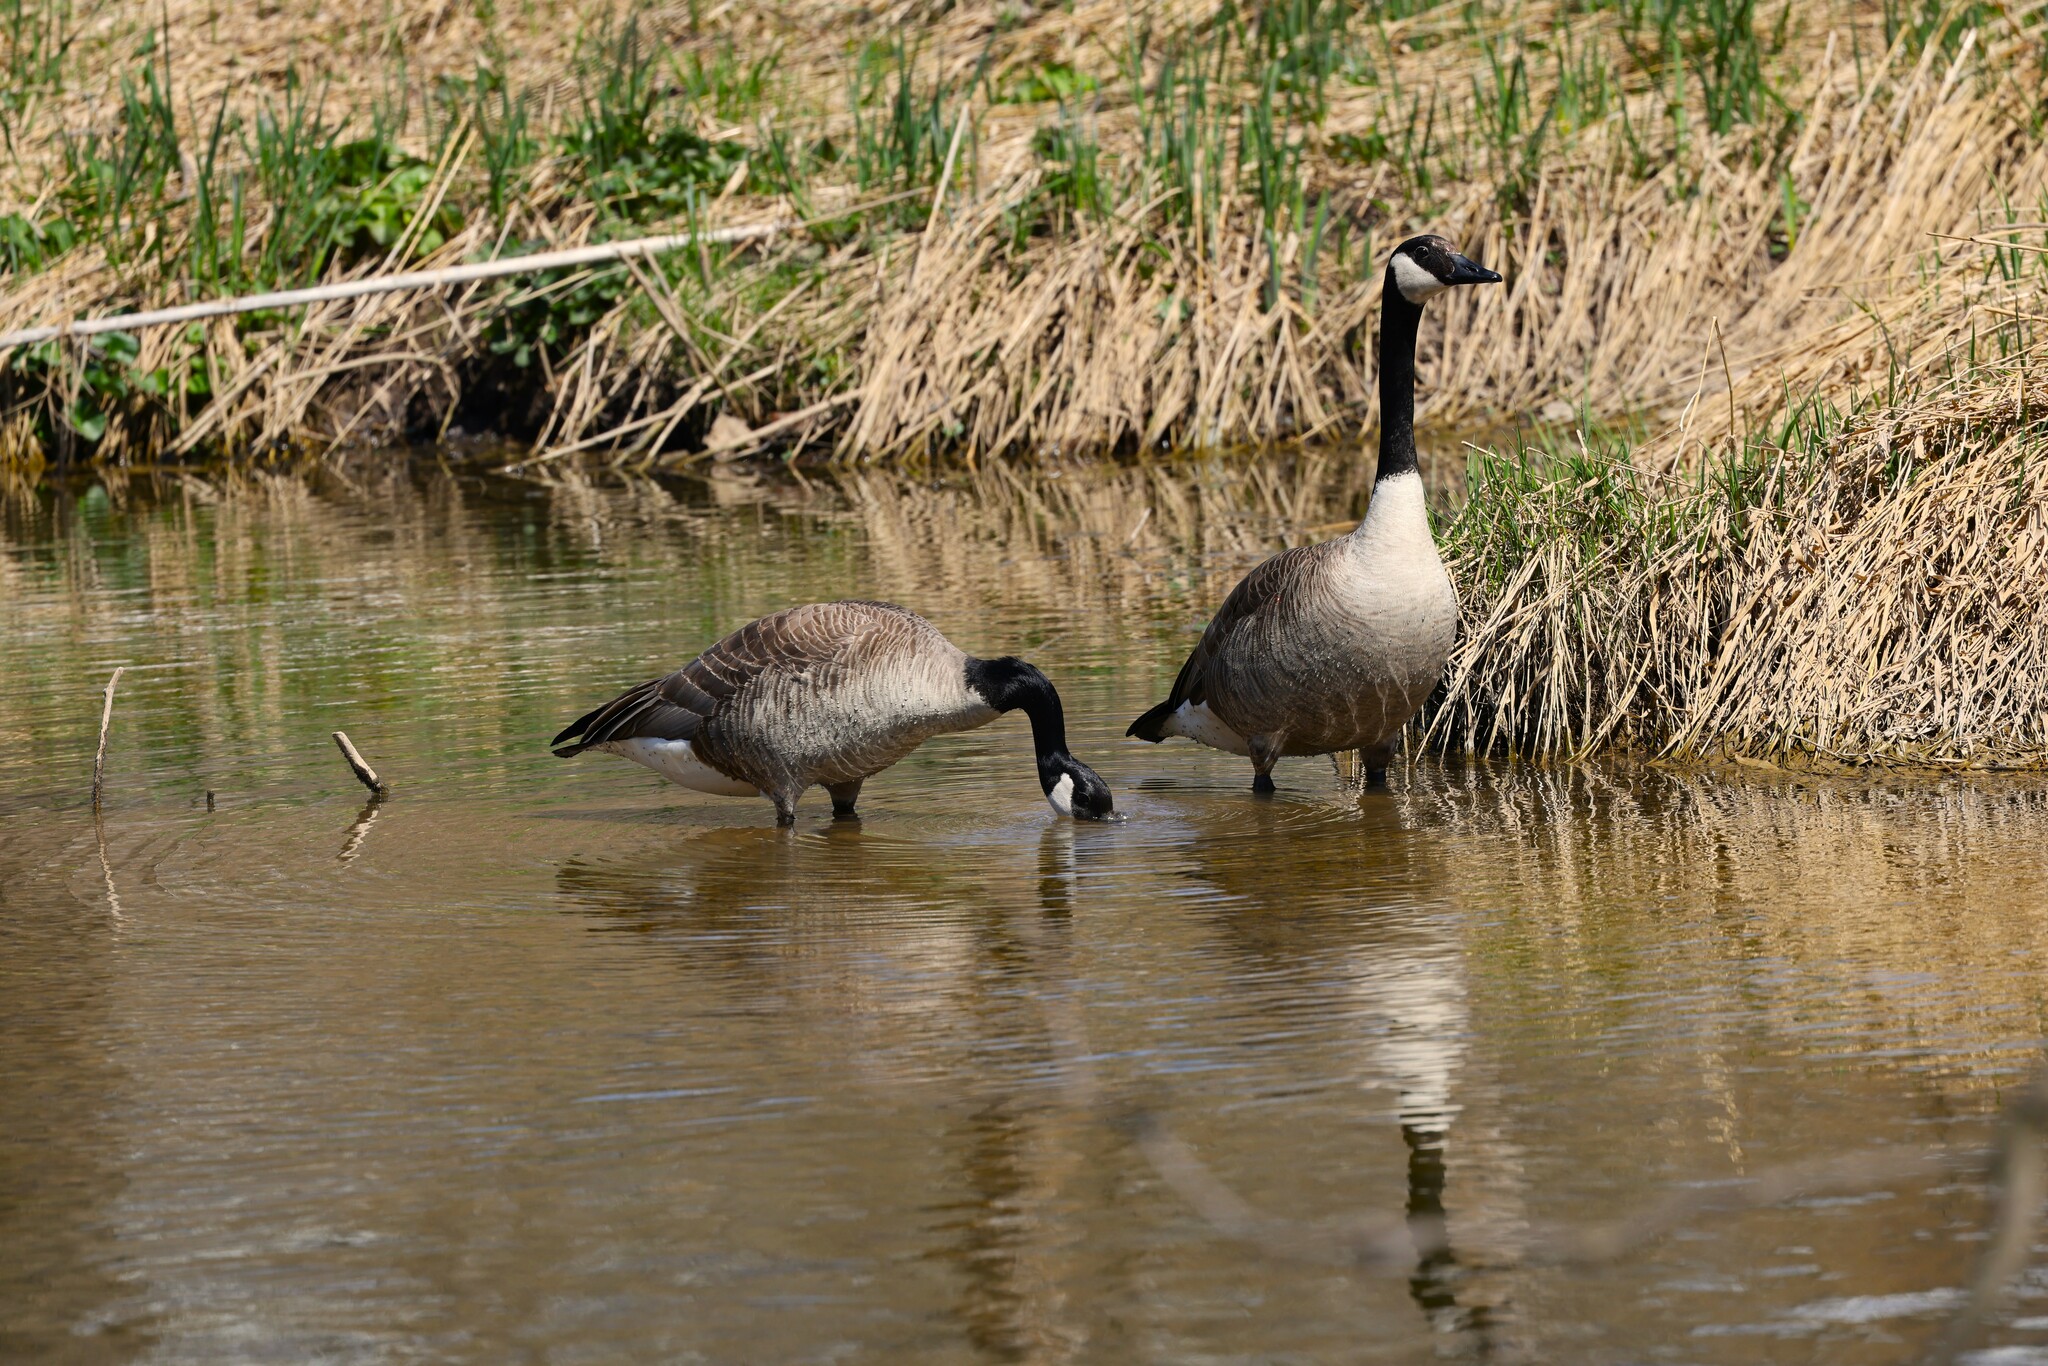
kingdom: Animalia
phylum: Chordata
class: Aves
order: Anseriformes
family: Anatidae
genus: Branta
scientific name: Branta canadensis
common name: Canada goose
